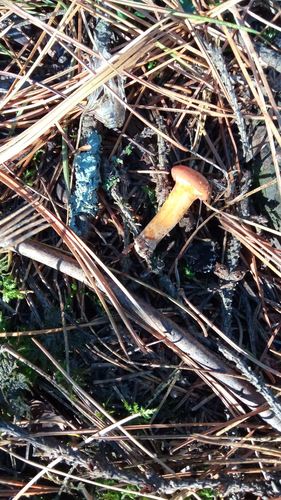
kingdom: Fungi
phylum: Basidiomycota
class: Agaricomycetes
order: Cantharellales
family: Hydnaceae
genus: Cantharellus
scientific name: Cantharellus cibarius
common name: Chanterelle
